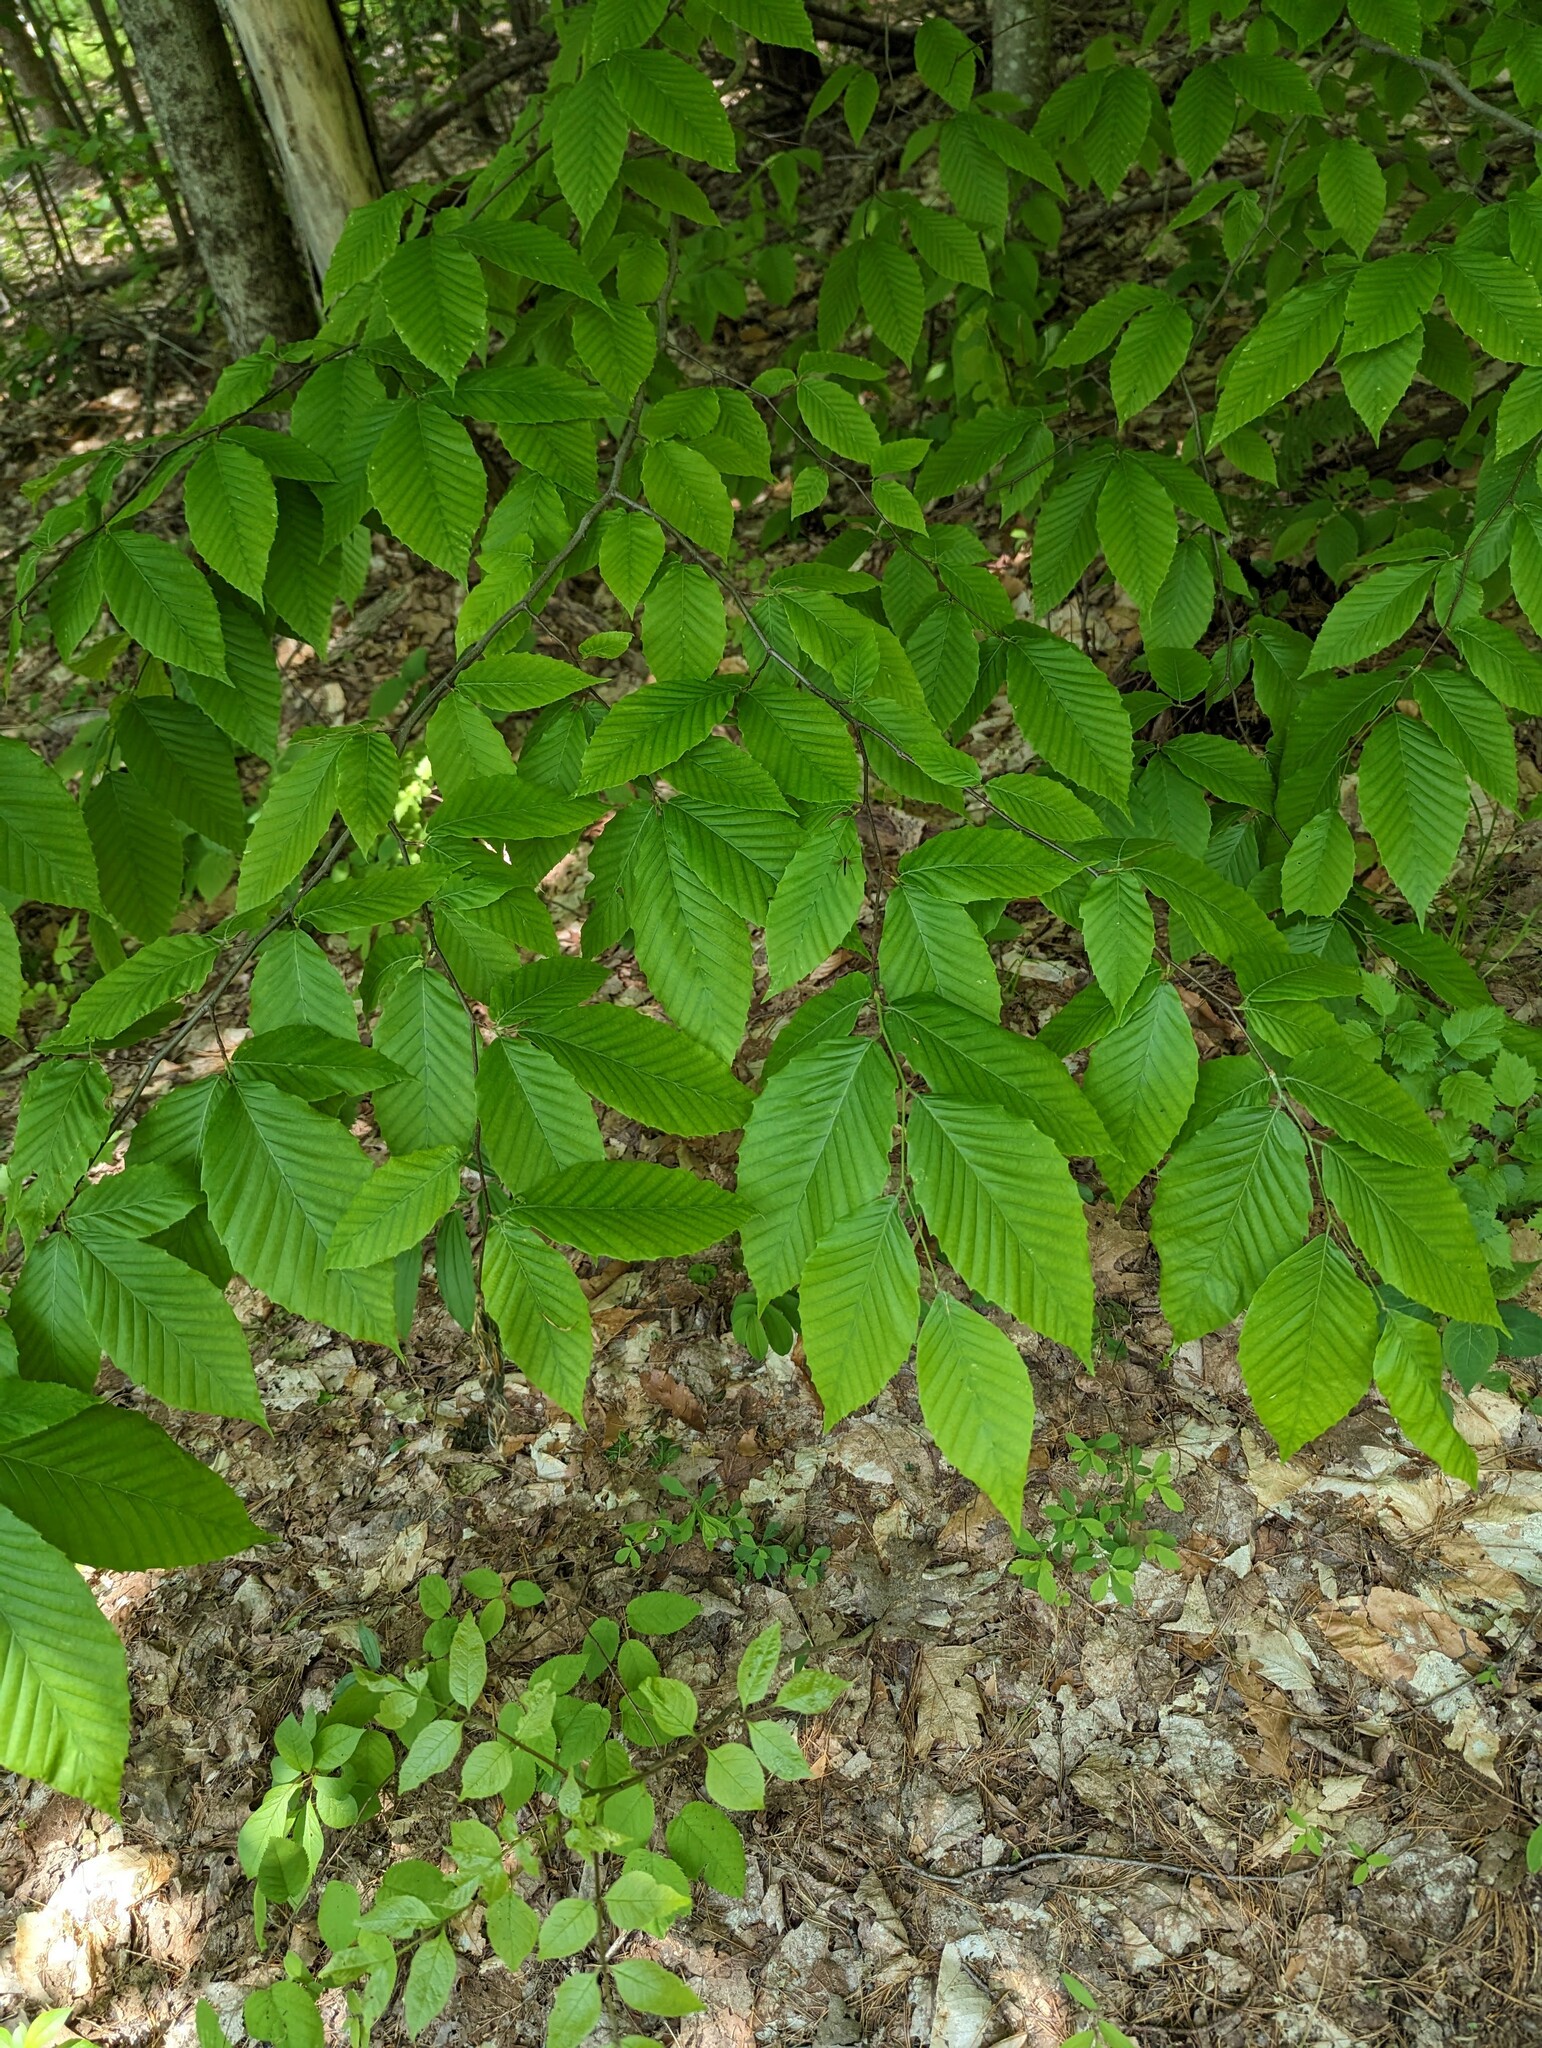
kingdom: Plantae
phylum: Tracheophyta
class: Magnoliopsida
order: Fagales
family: Fagaceae
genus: Fagus
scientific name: Fagus grandifolia
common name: American beech
